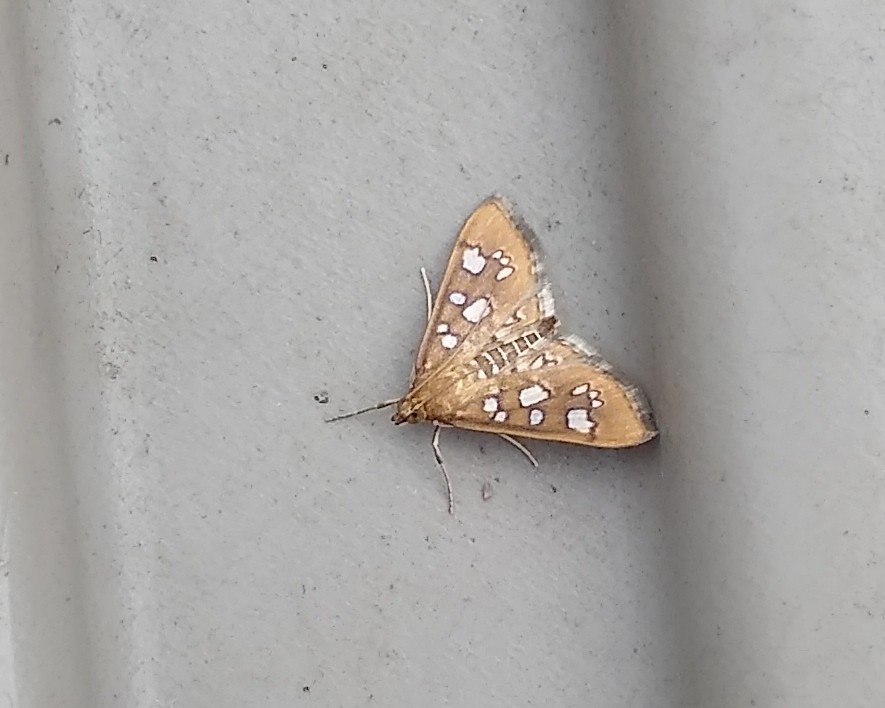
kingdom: Animalia
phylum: Arthropoda
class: Insecta
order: Lepidoptera
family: Crambidae
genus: Samea
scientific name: Samea baccatalis
